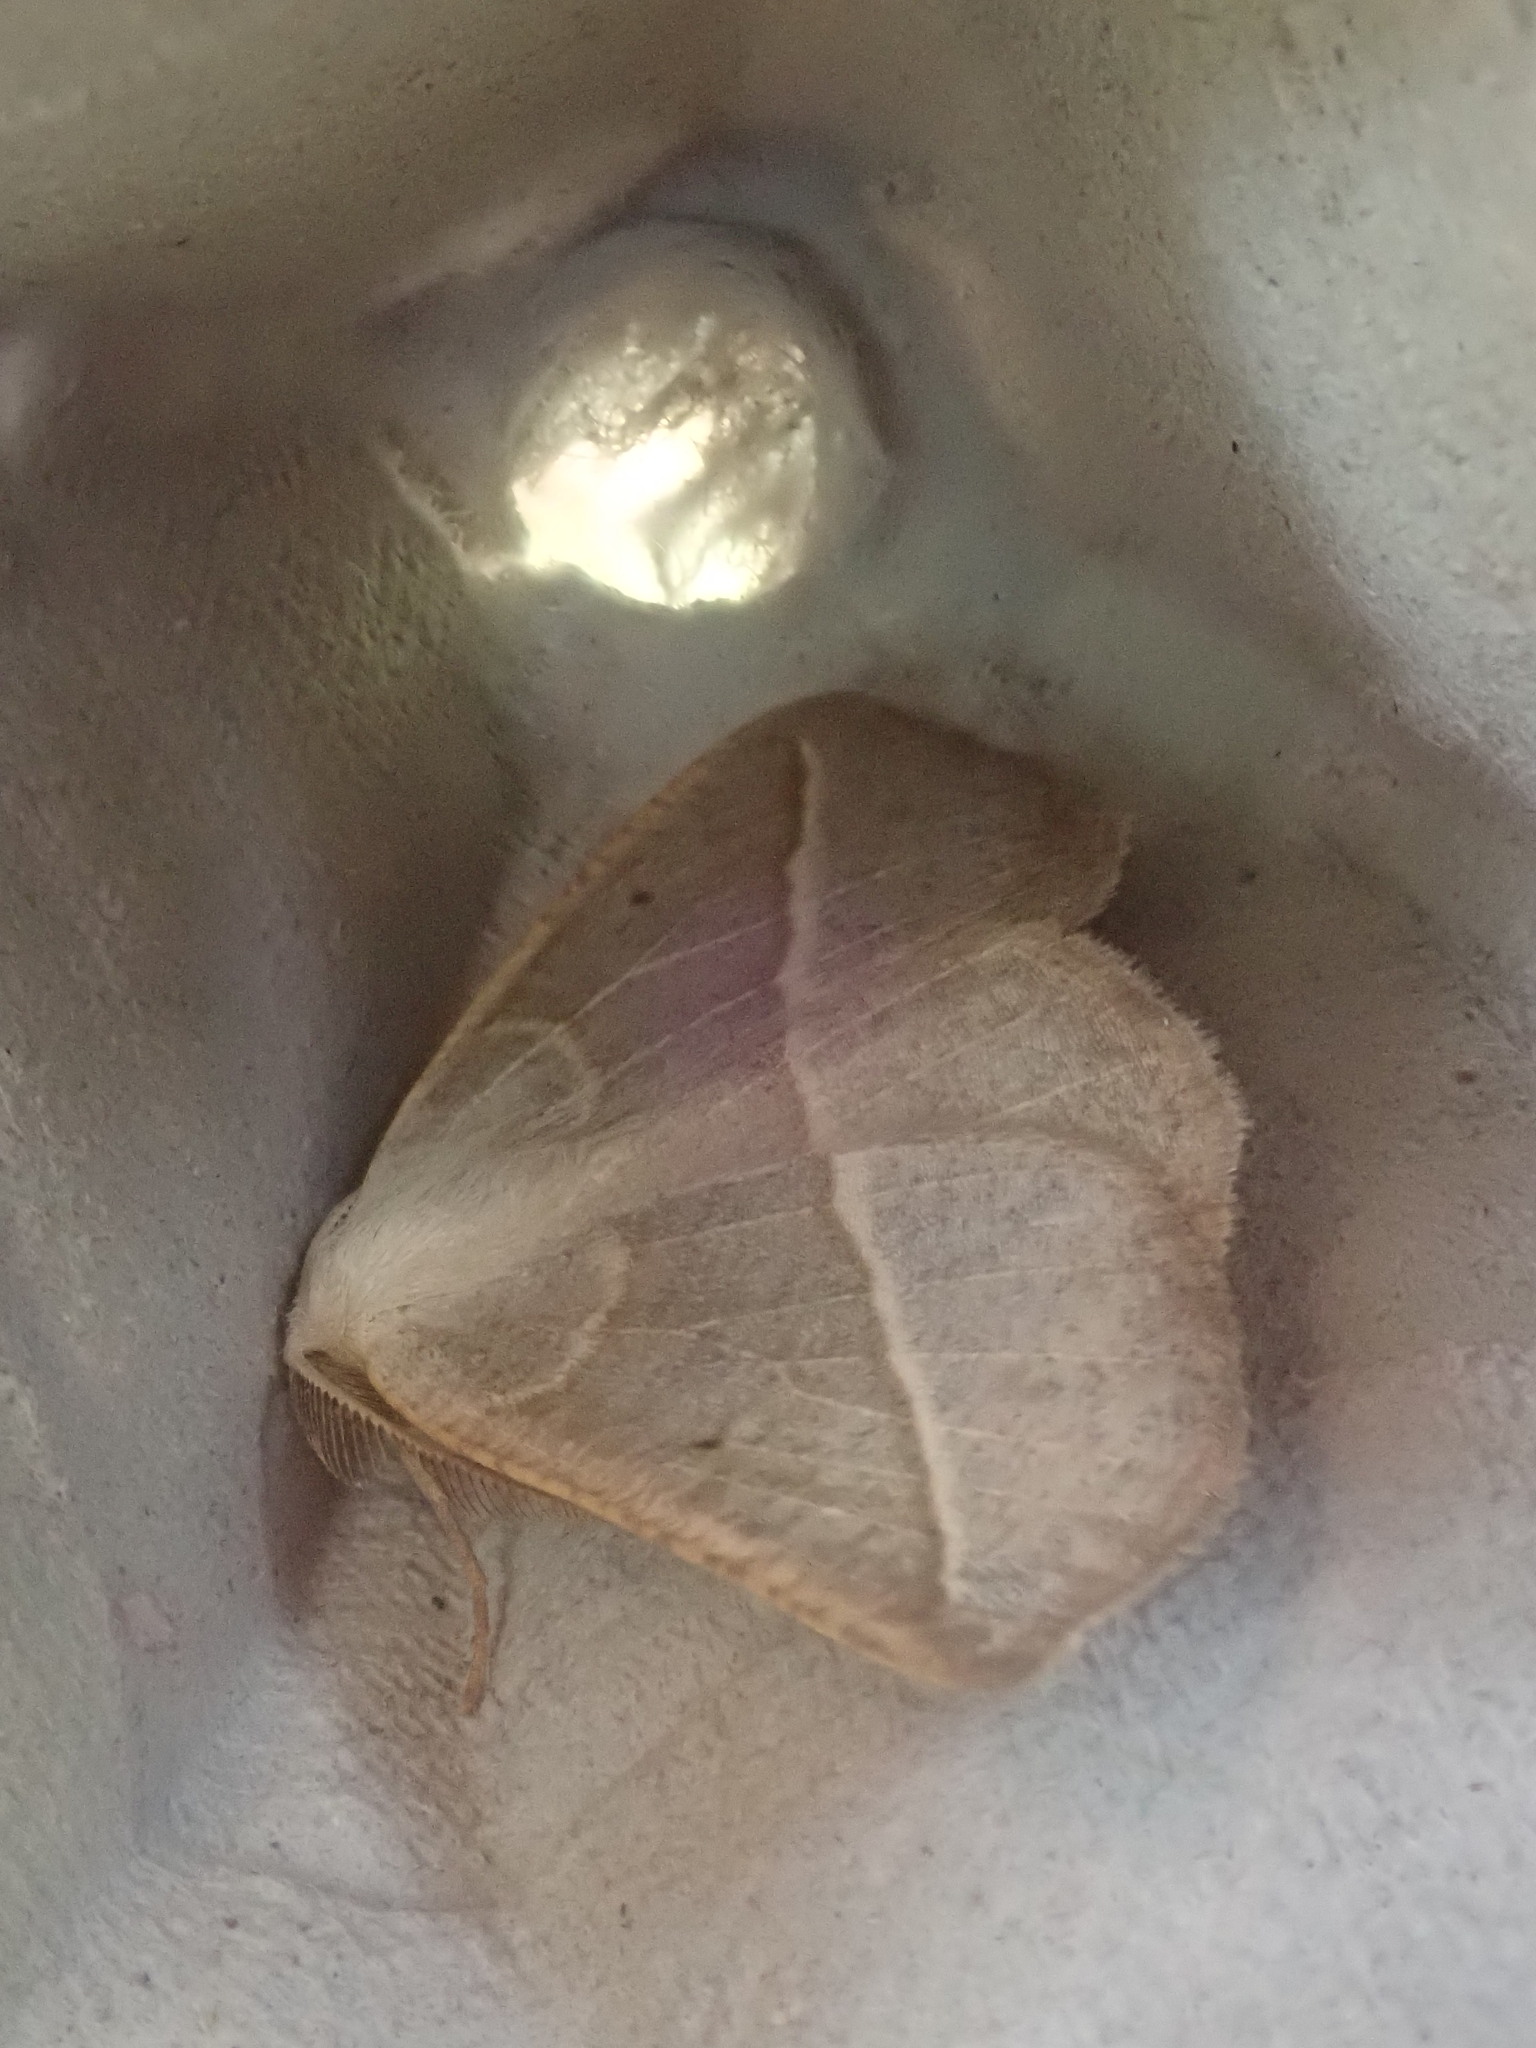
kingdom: Animalia
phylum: Arthropoda
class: Insecta
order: Lepidoptera
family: Geometridae
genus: Eusarca
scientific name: Eusarca confusaria
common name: Confused eusarca
